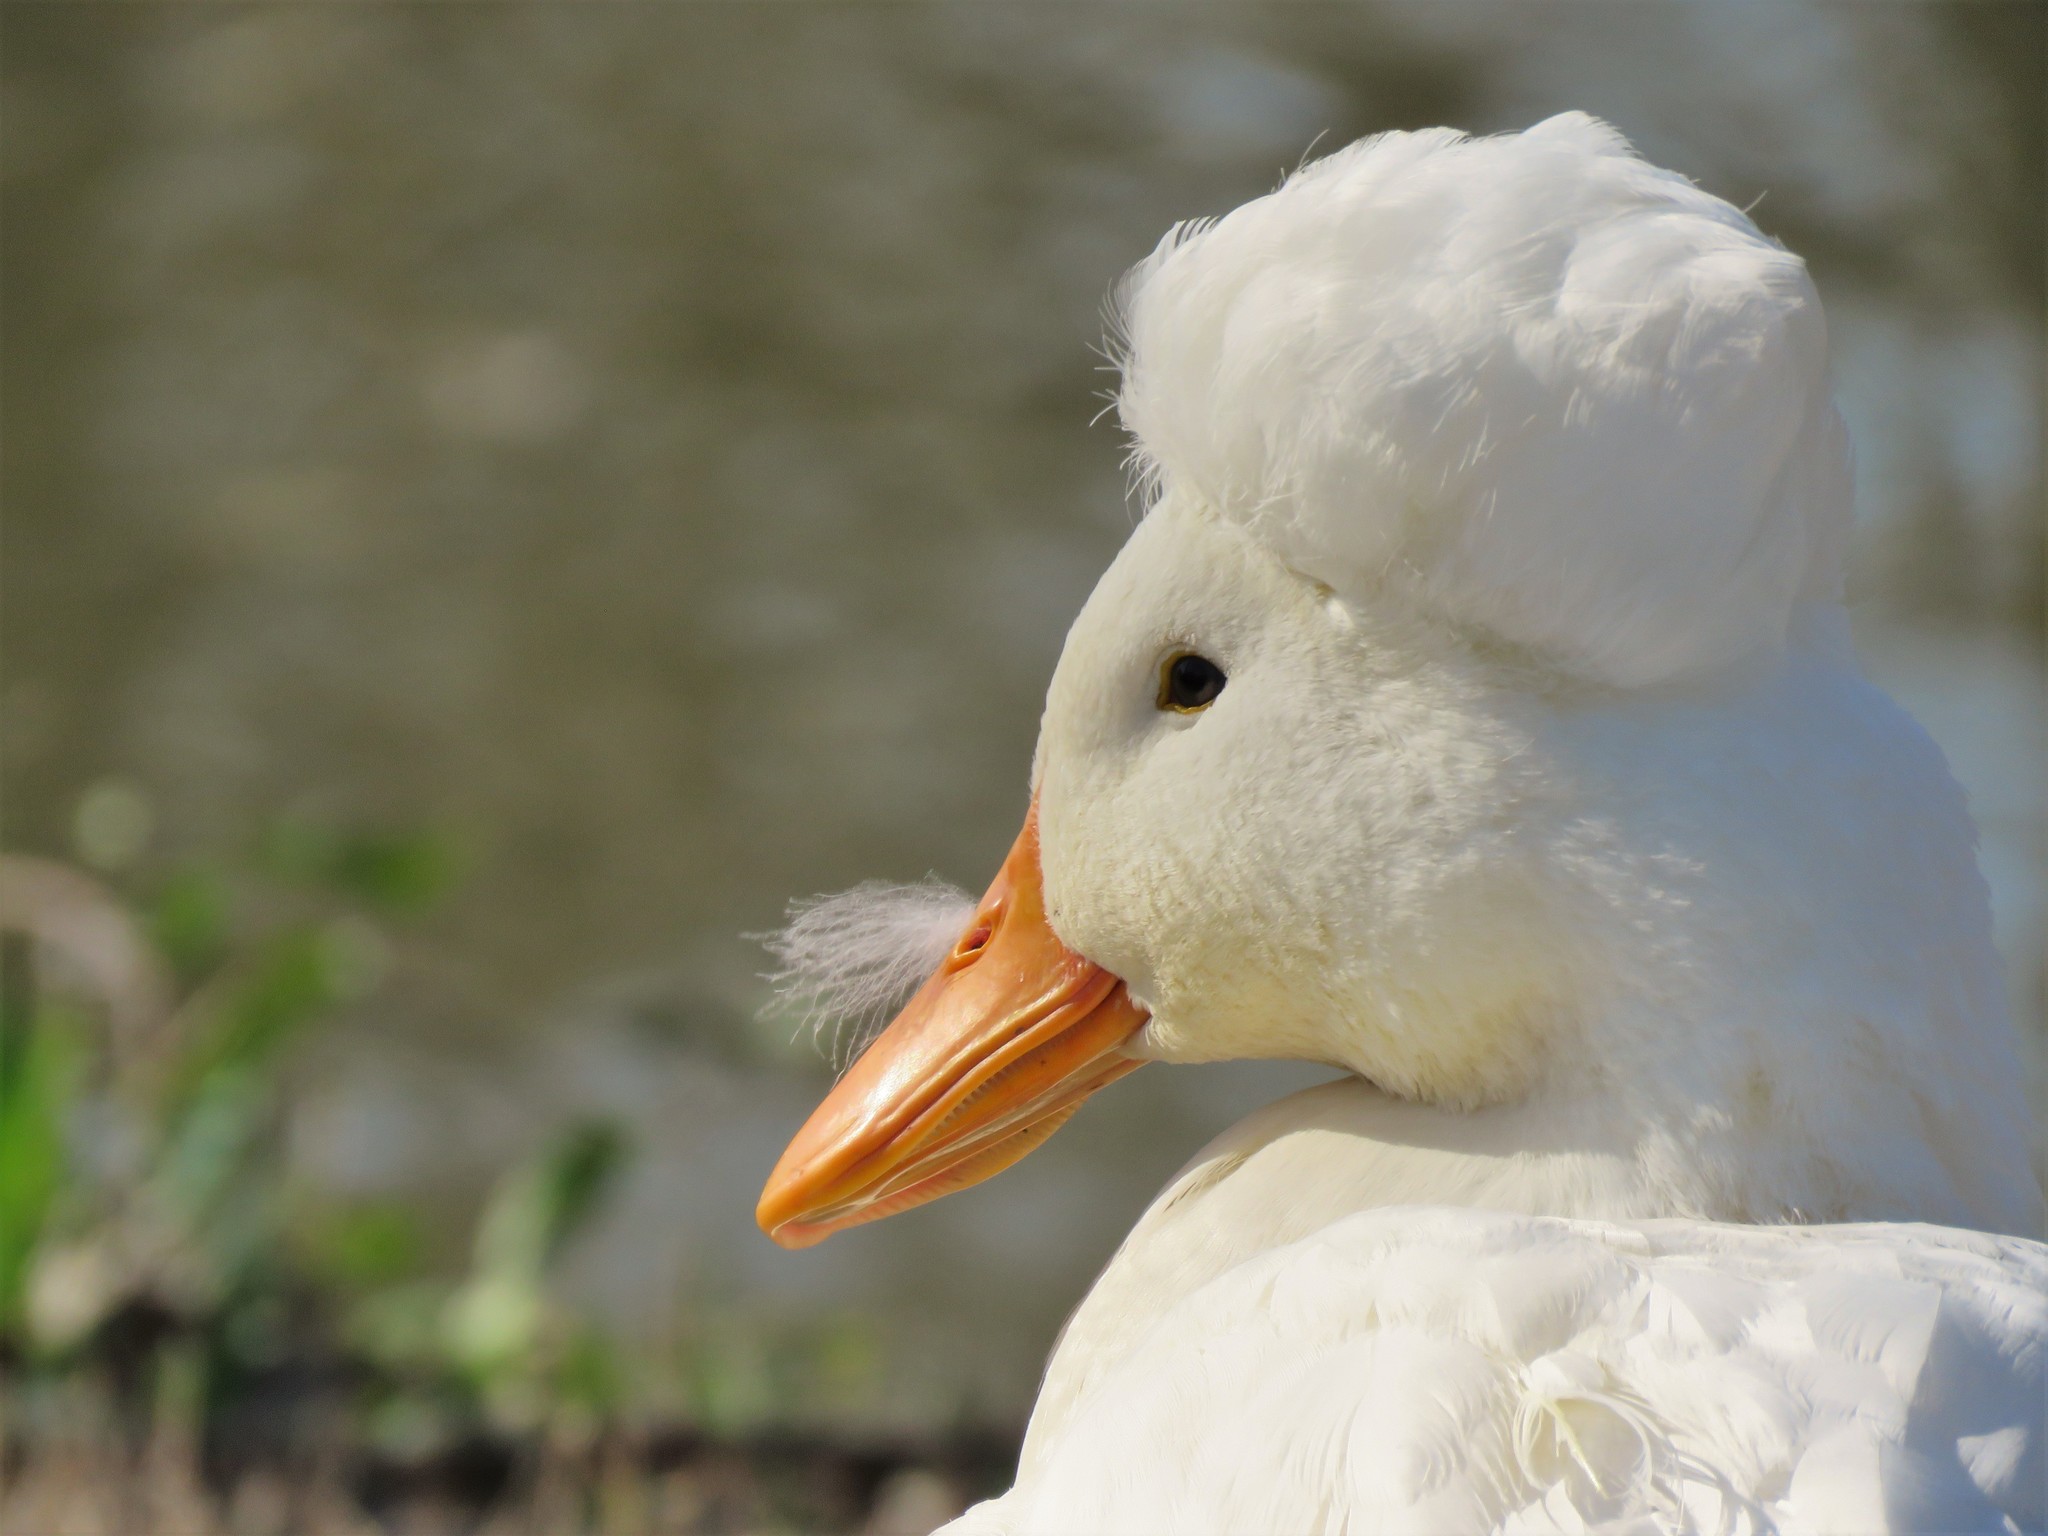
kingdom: Animalia
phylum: Chordata
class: Aves
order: Anseriformes
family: Anatidae
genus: Anas
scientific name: Anas platyrhynchos
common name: Mallard
